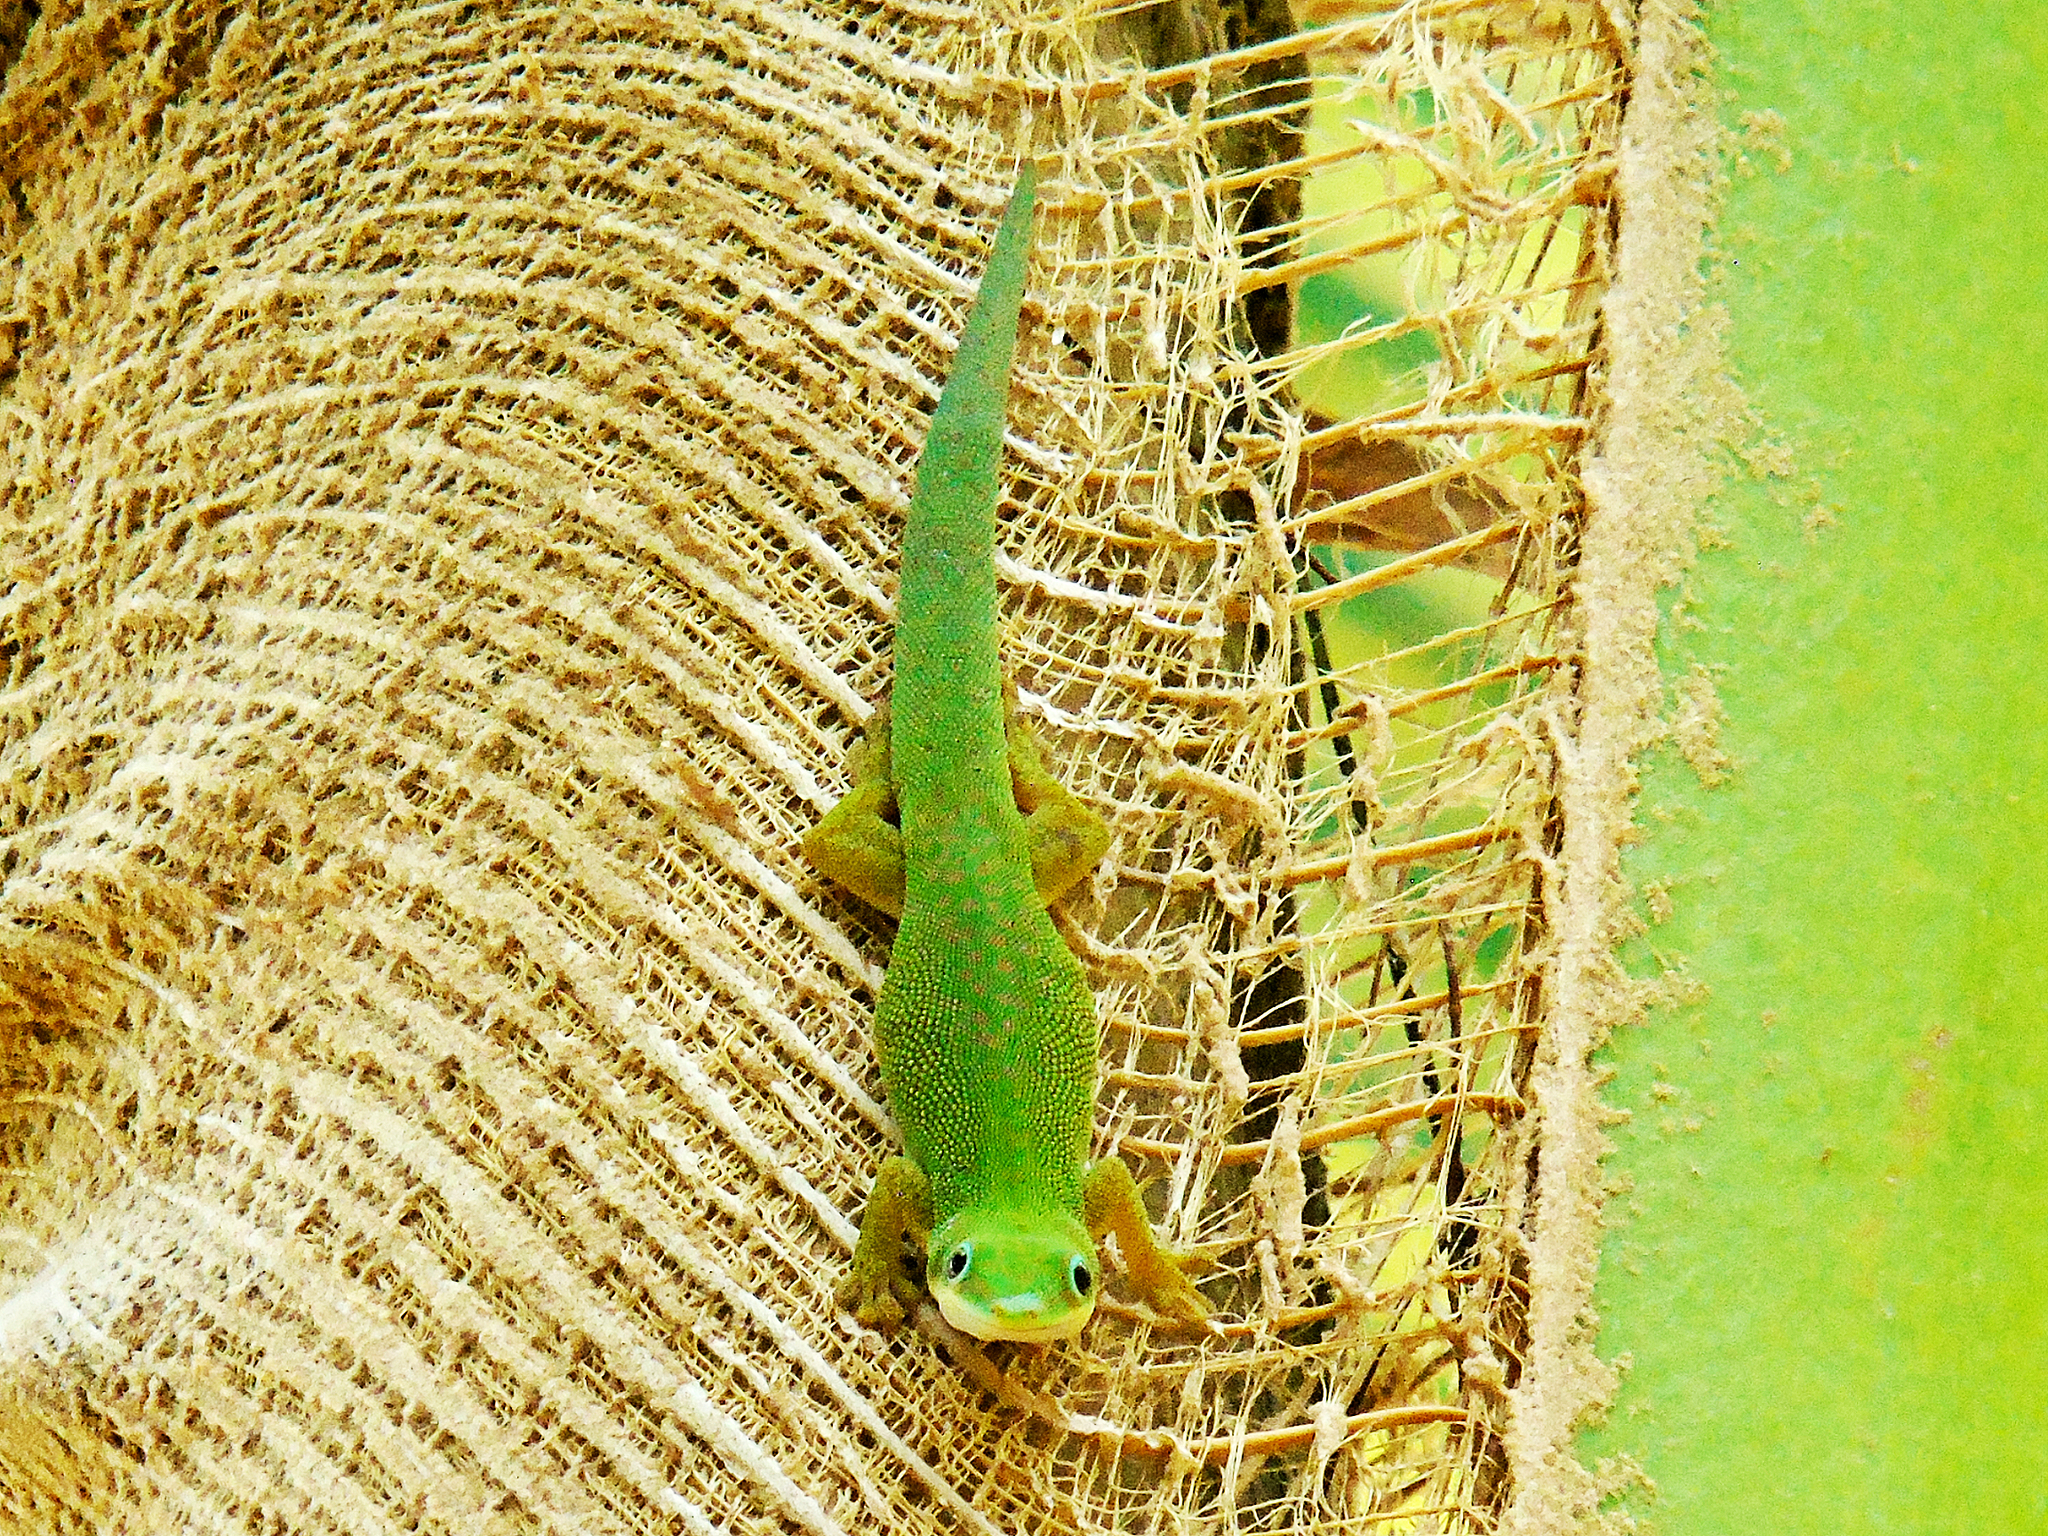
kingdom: Animalia
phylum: Chordata
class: Squamata
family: Gekkonidae
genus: Phelsuma
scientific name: Phelsuma dubia
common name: Zanzibar day gecko
